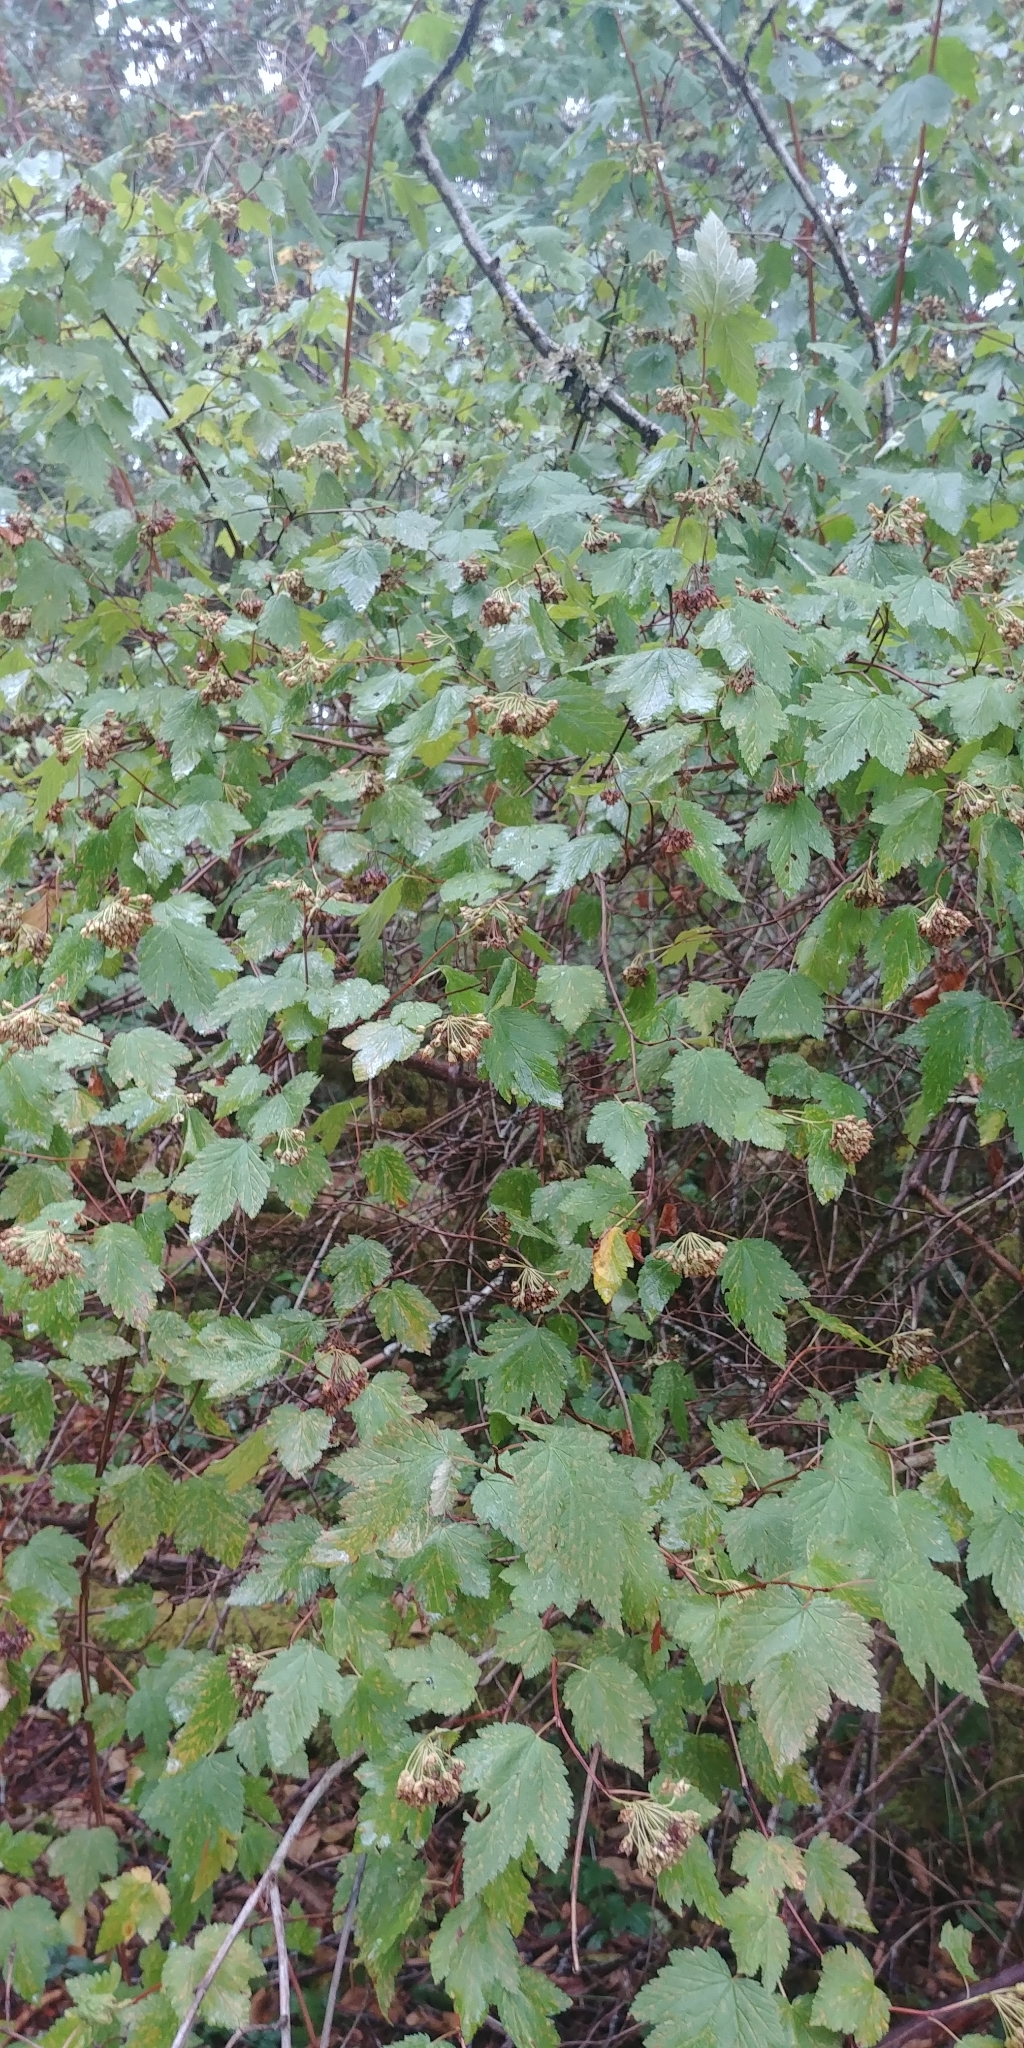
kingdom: Plantae
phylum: Tracheophyta
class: Magnoliopsida
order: Rosales
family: Rosaceae
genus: Physocarpus
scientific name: Physocarpus capitatus
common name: Pacific ninebark
